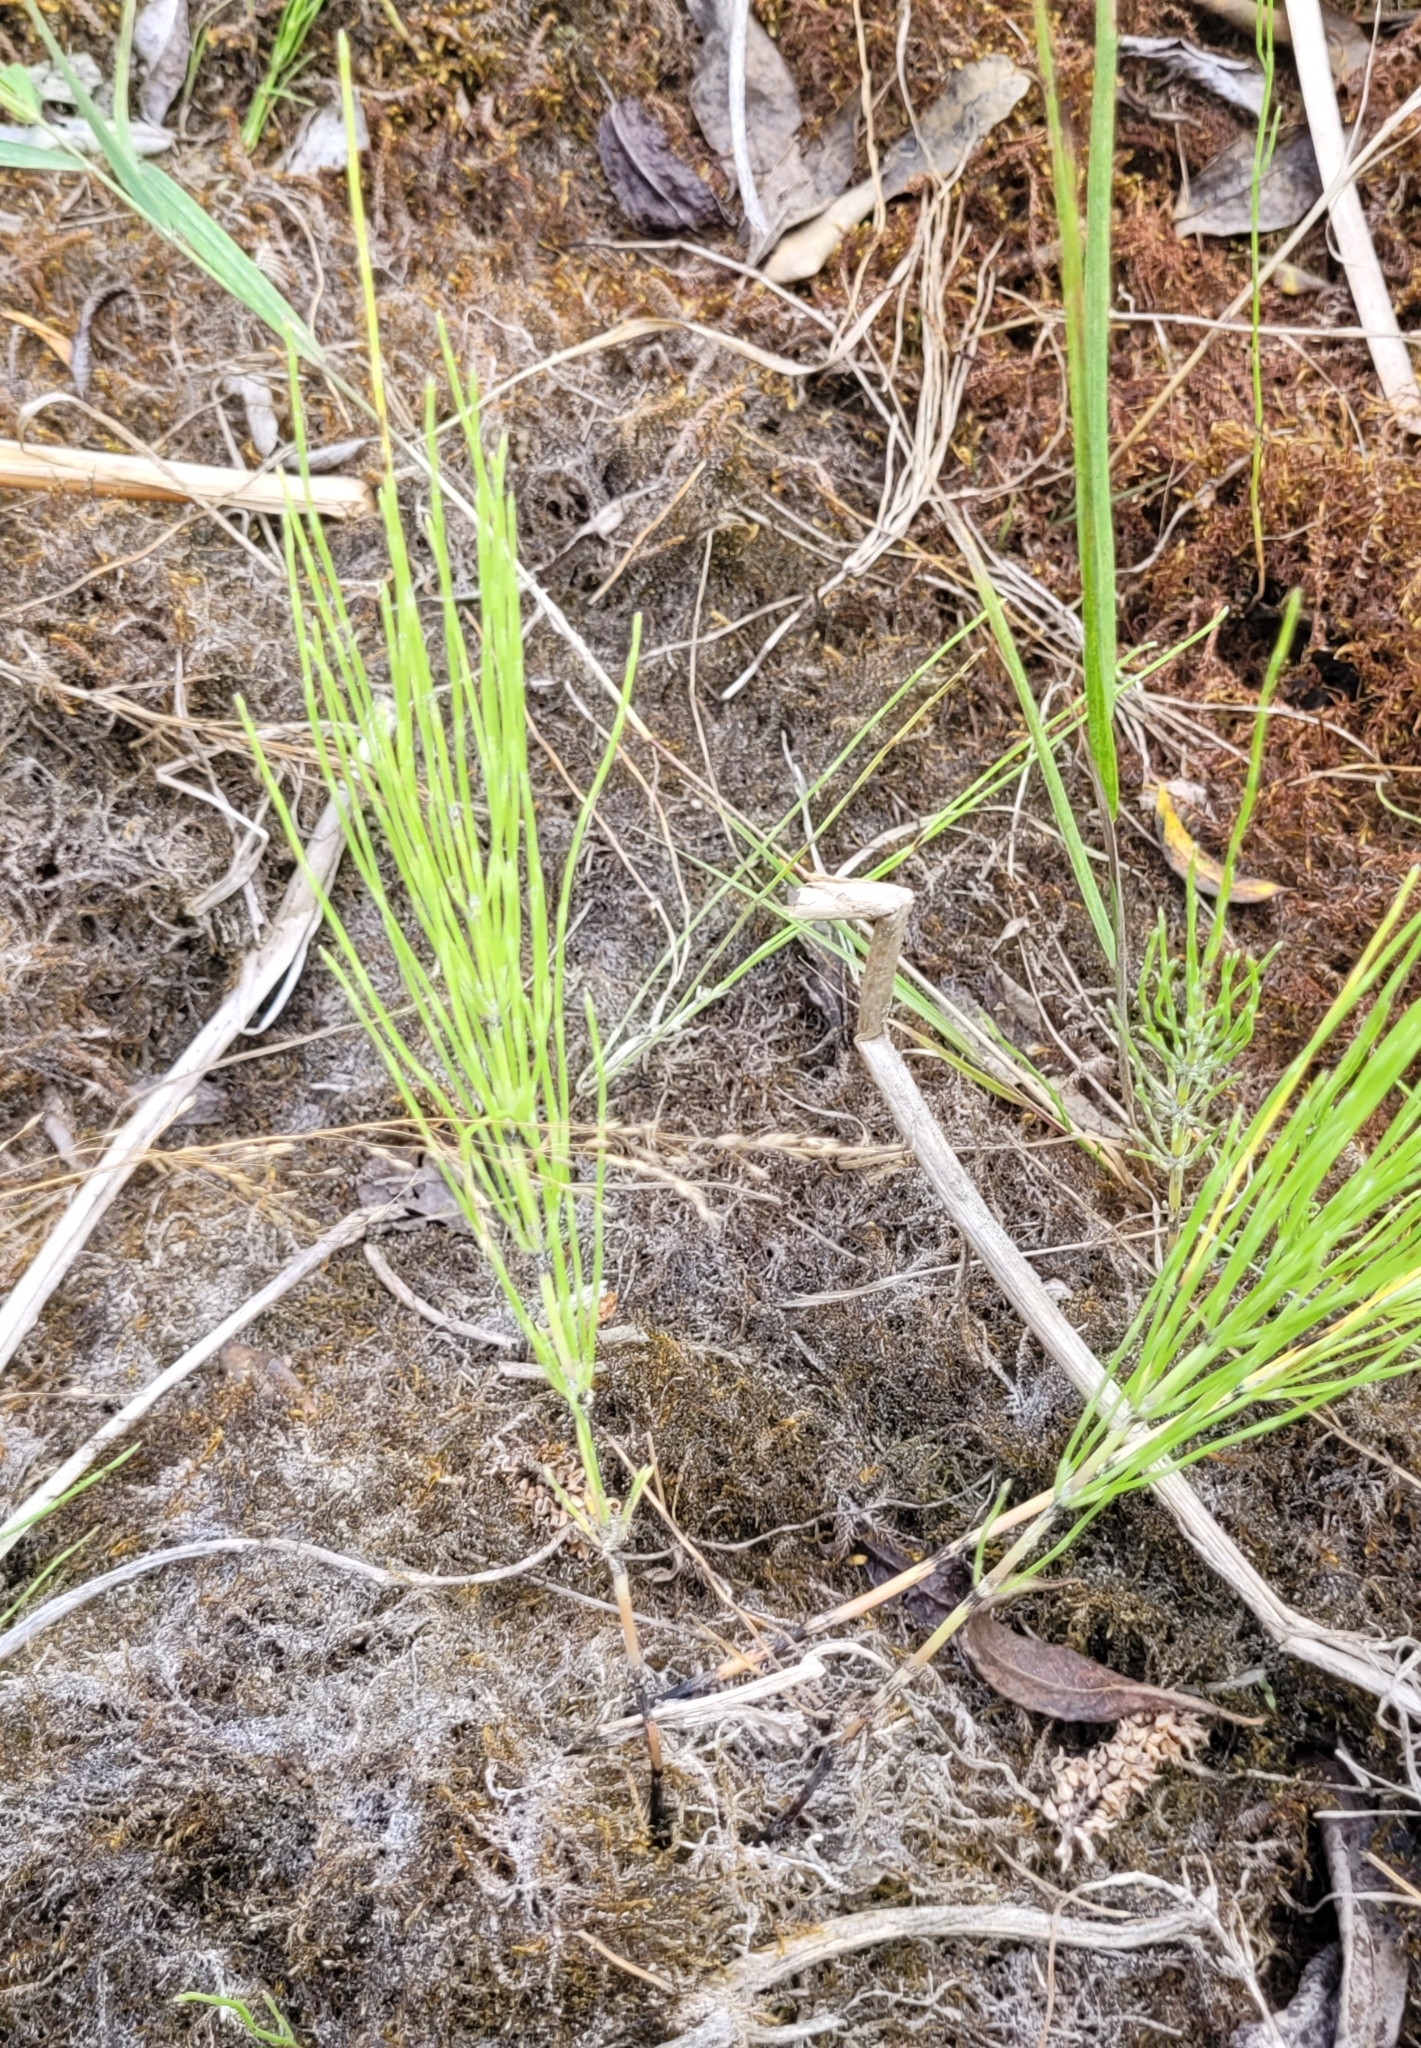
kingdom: Plantae
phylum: Tracheophyta
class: Polypodiopsida
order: Equisetales
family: Equisetaceae
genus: Equisetum
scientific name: Equisetum arvense
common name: Field horsetail
